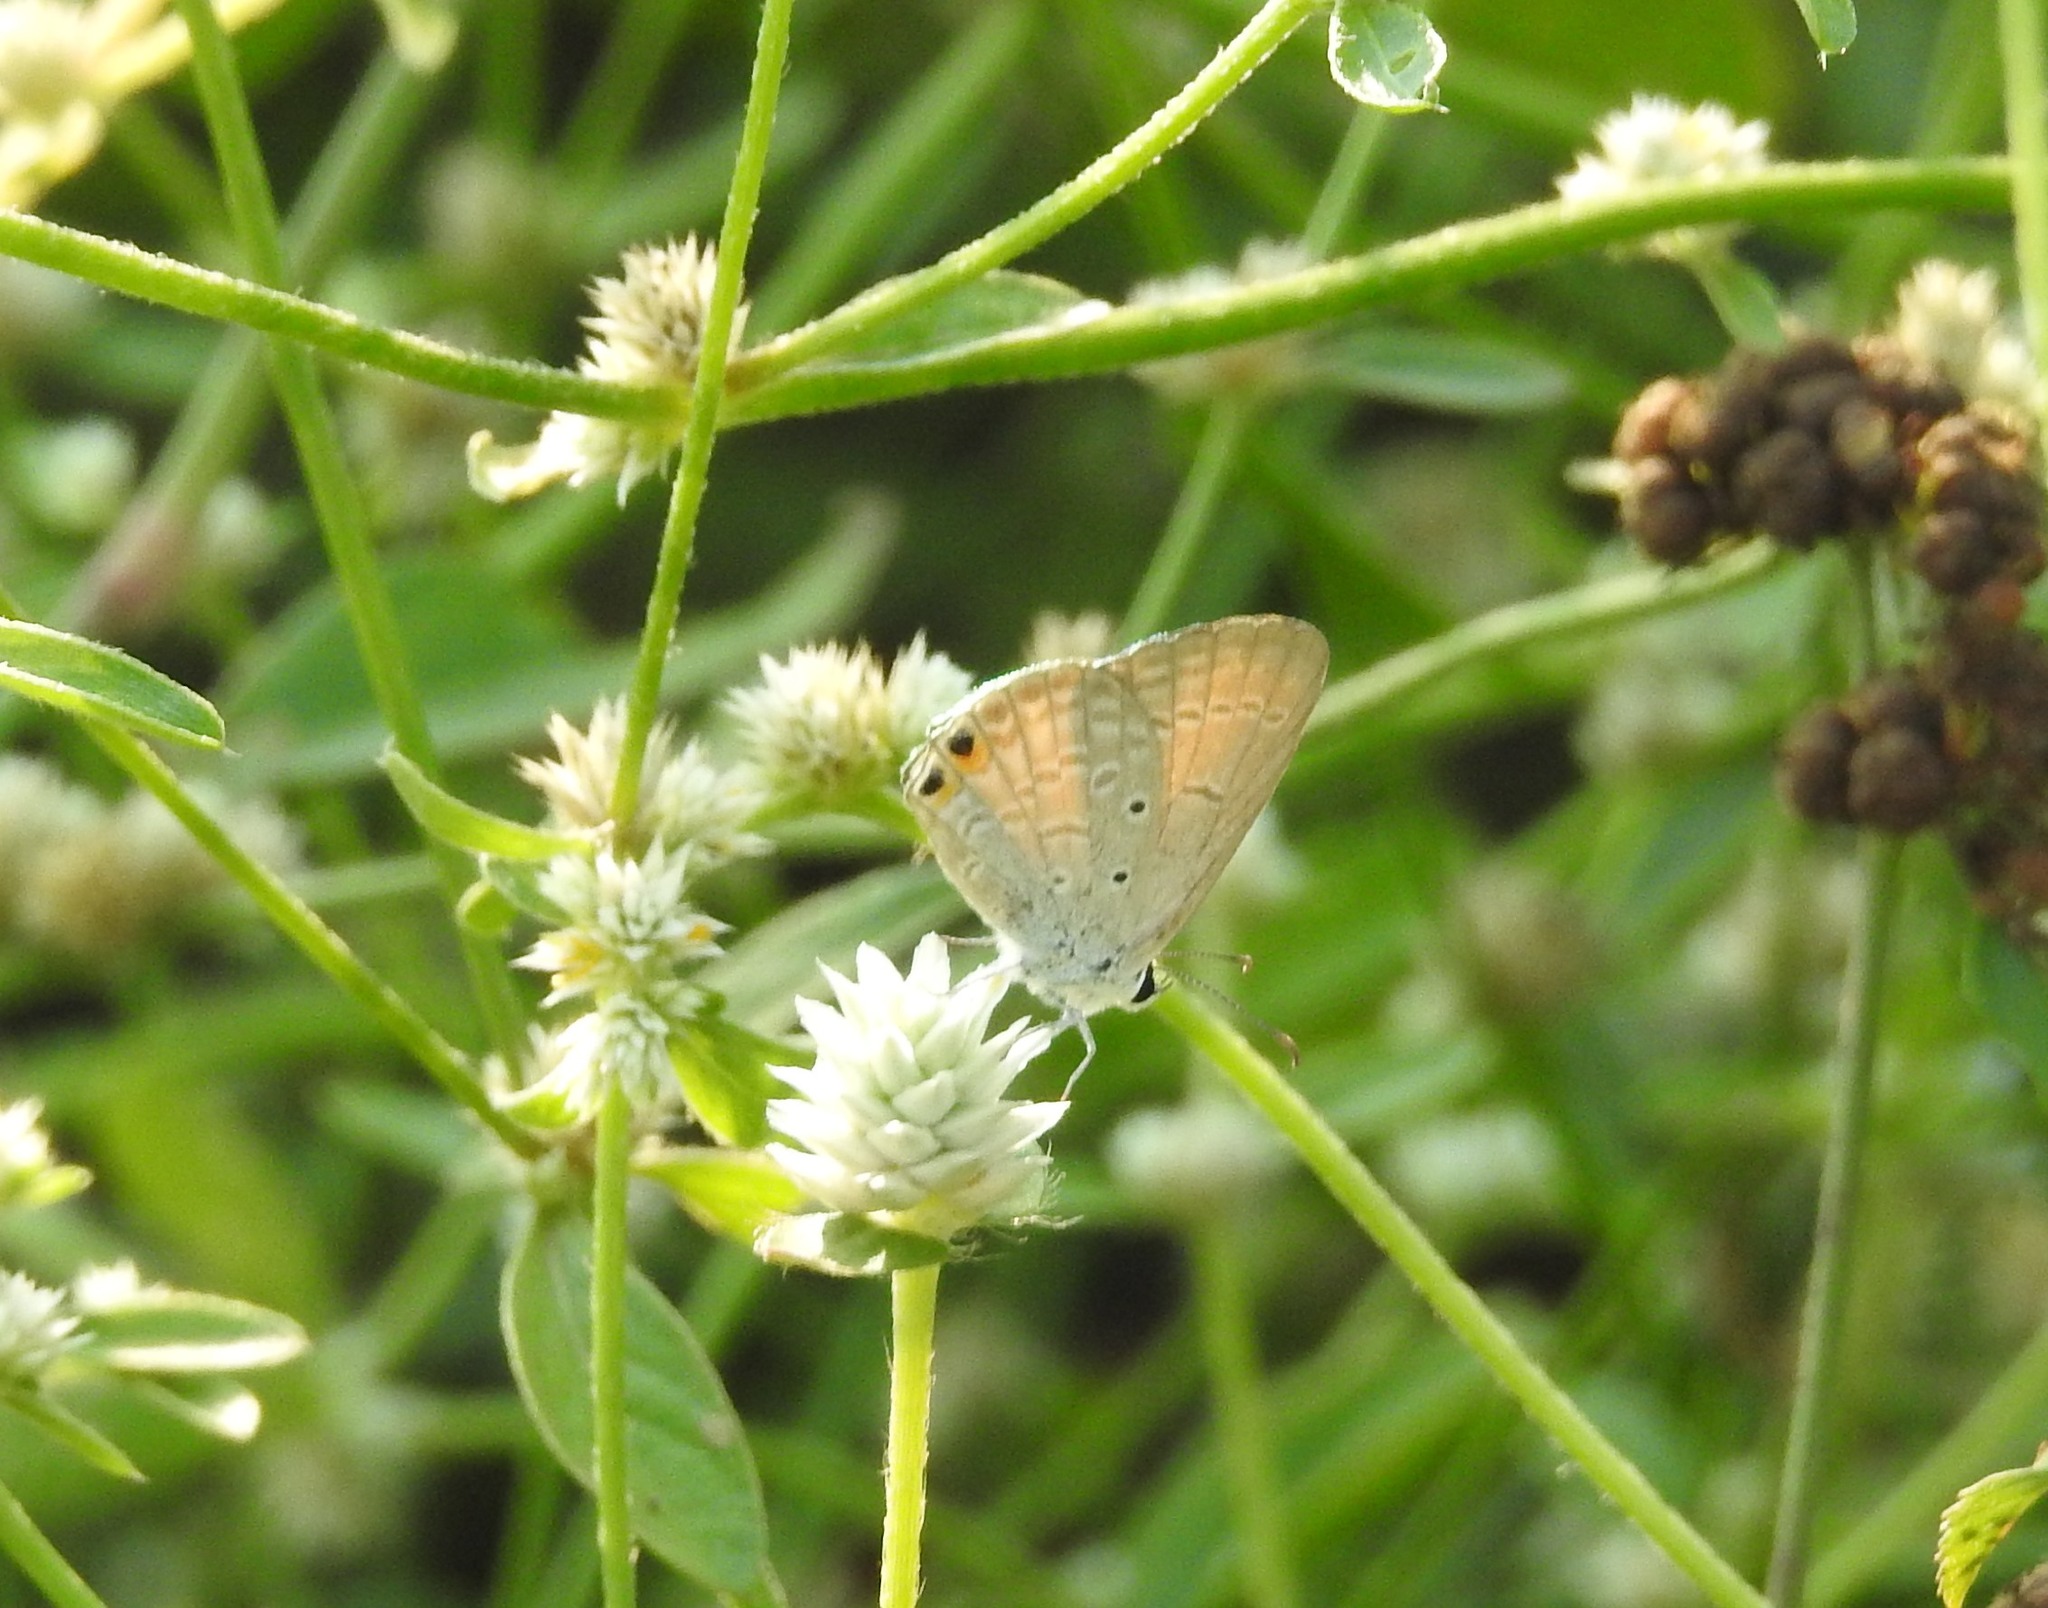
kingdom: Animalia
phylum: Arthropoda
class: Insecta
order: Lepidoptera
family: Lycaenidae
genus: Euchrysops
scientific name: Euchrysops cnejus
